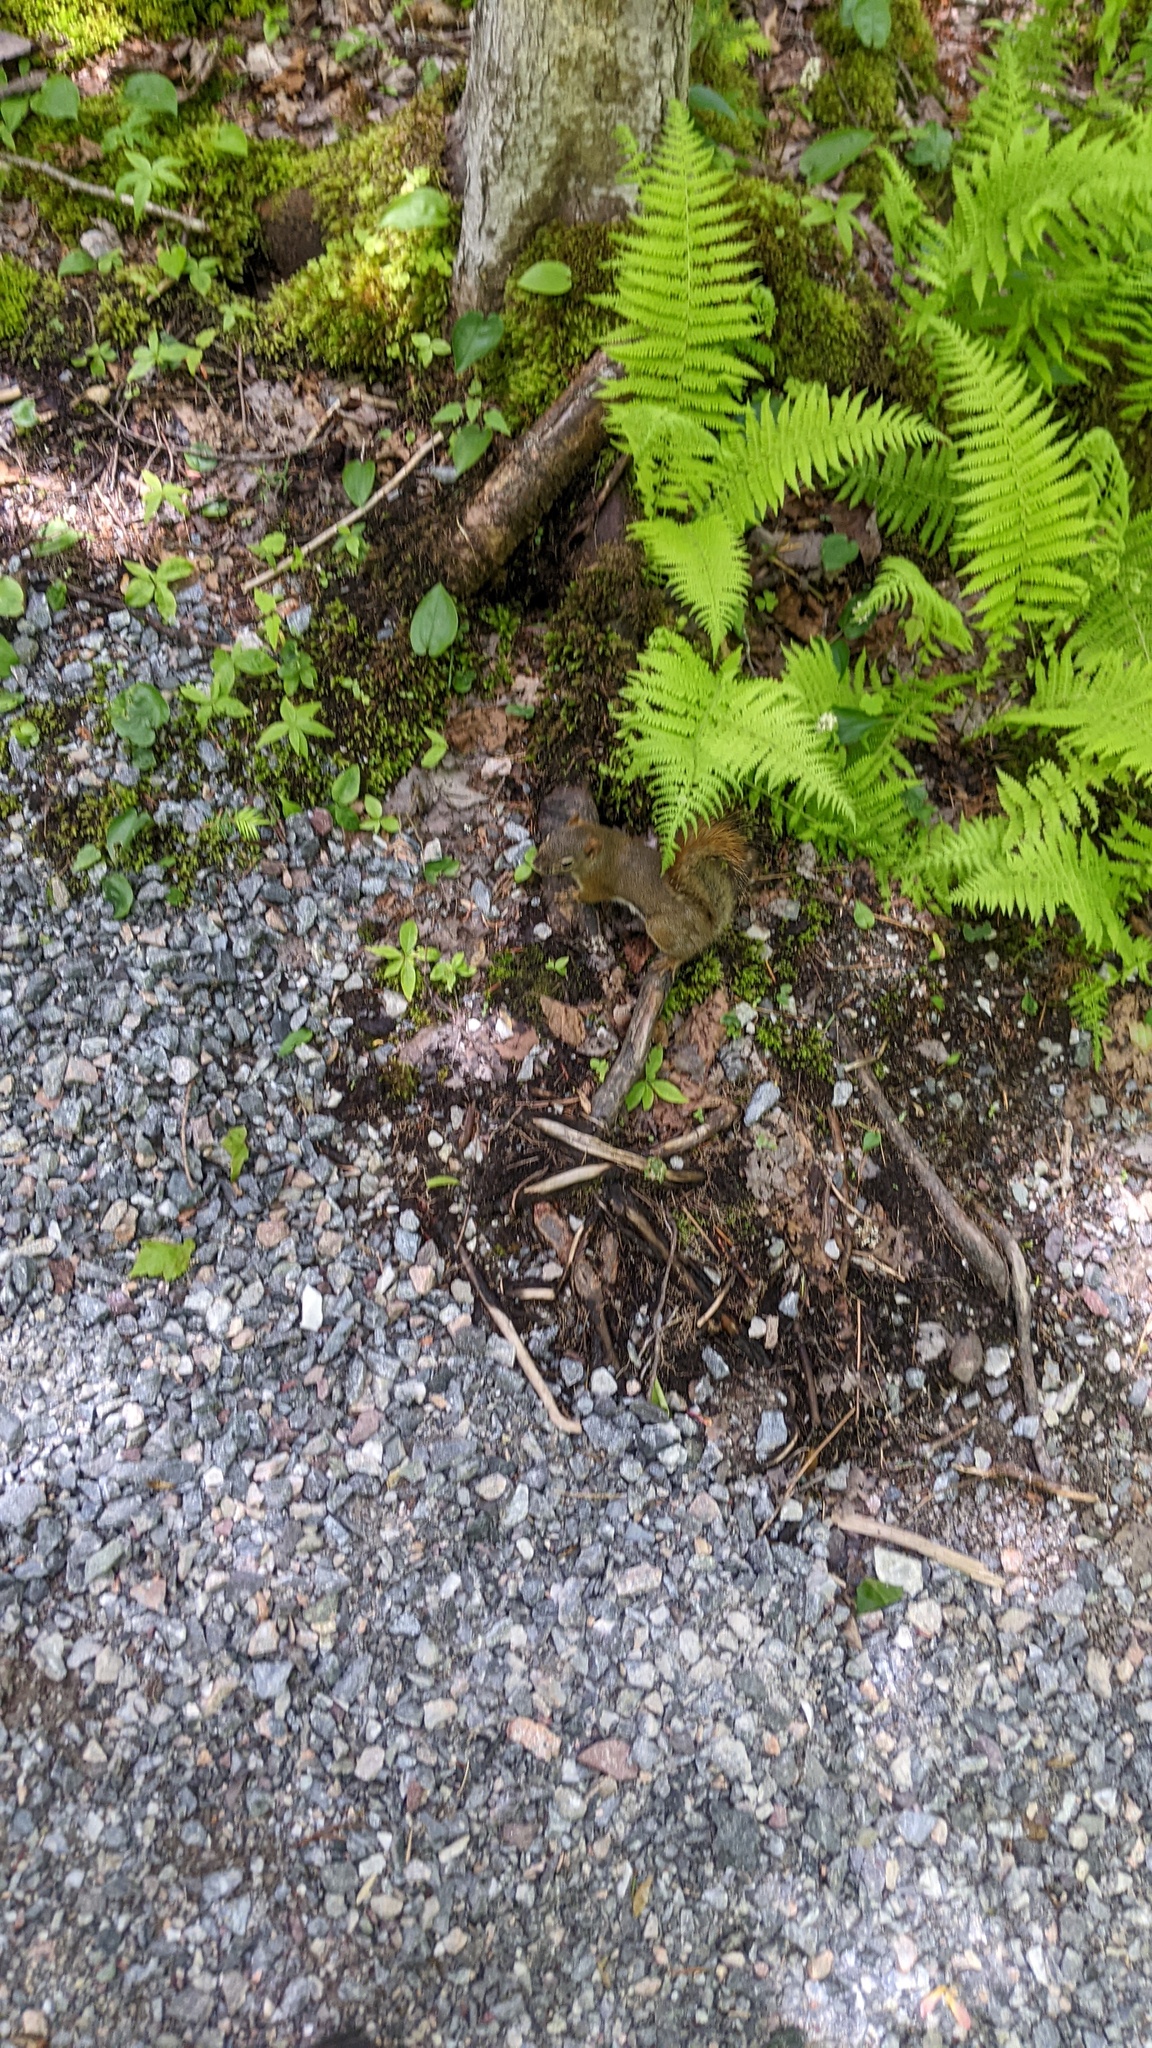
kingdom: Animalia
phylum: Chordata
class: Mammalia
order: Rodentia
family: Sciuridae
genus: Tamiasciurus
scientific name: Tamiasciurus hudsonicus
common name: Red squirrel
